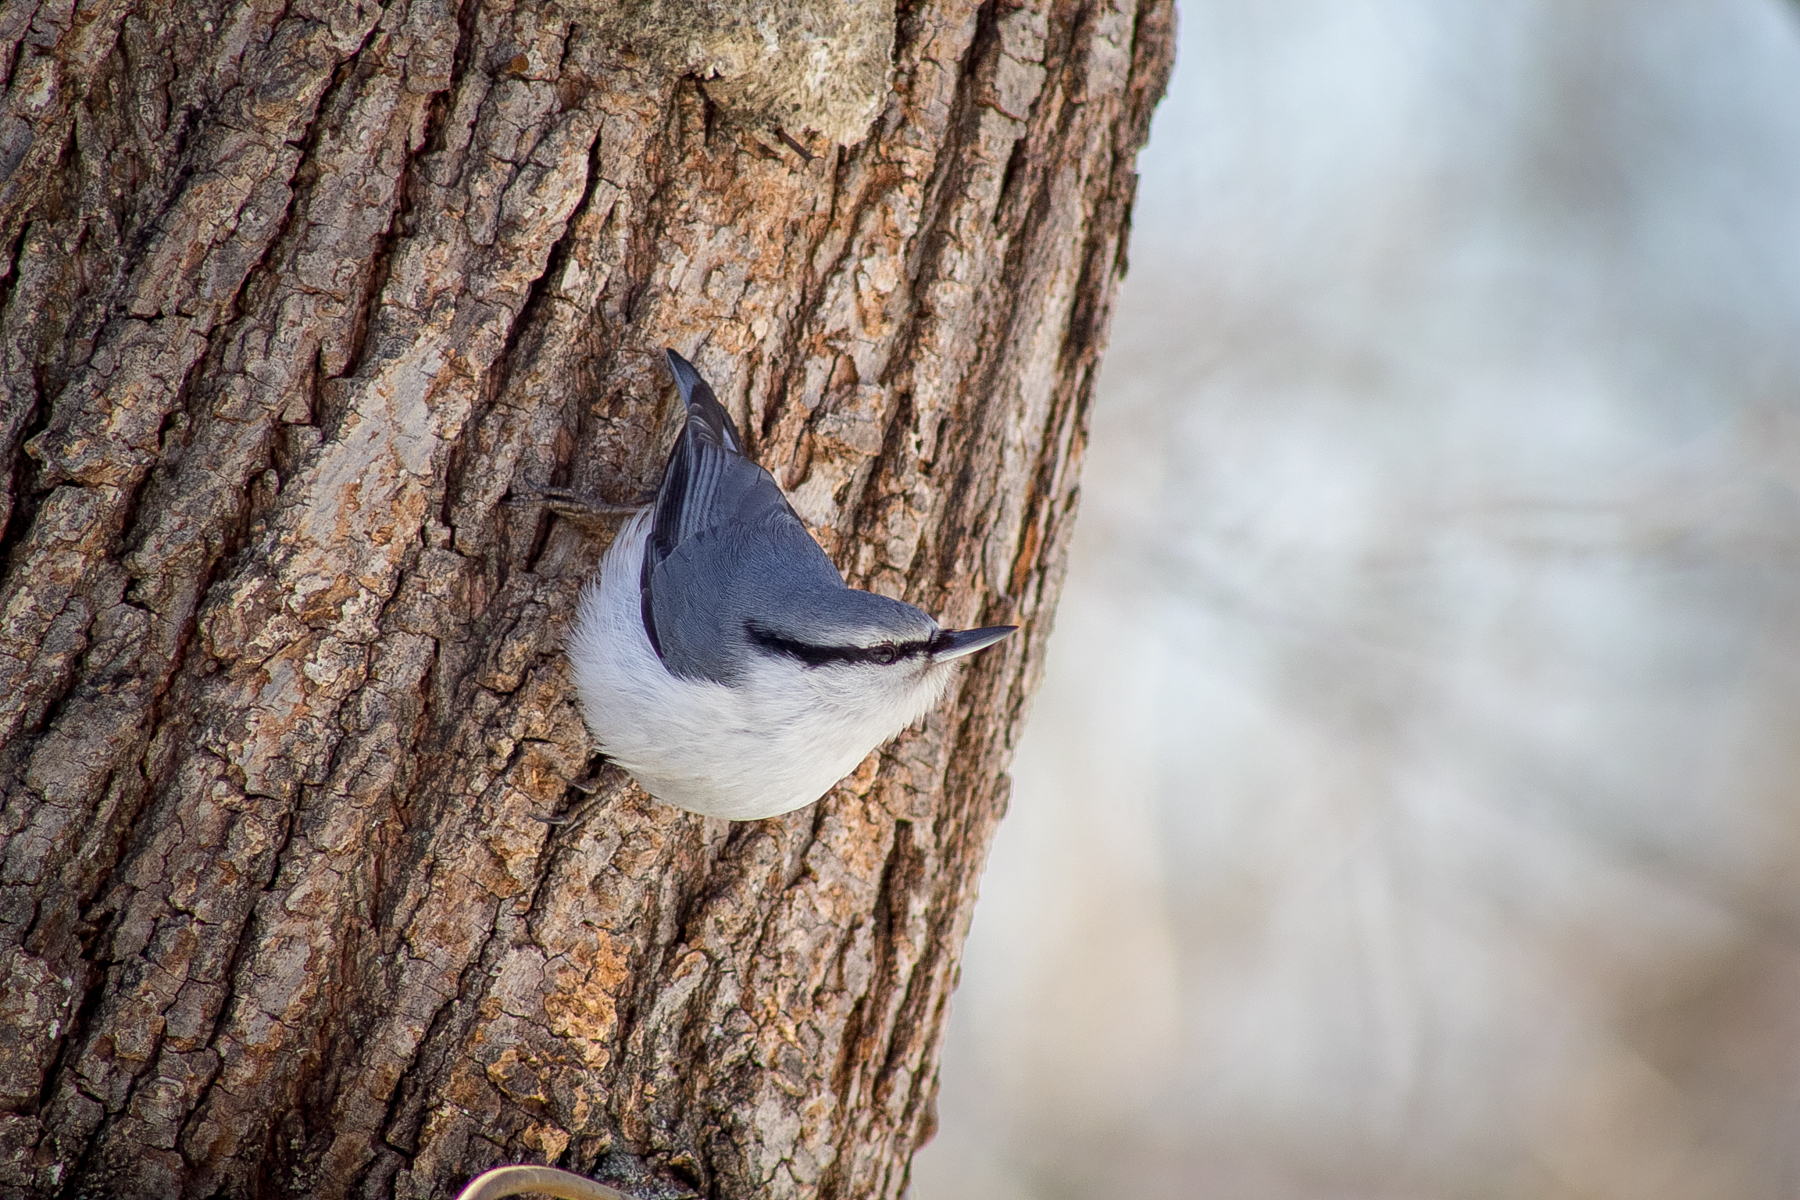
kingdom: Animalia
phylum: Chordata
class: Aves
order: Passeriformes
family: Sittidae
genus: Sitta
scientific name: Sitta europaea
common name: Eurasian nuthatch
